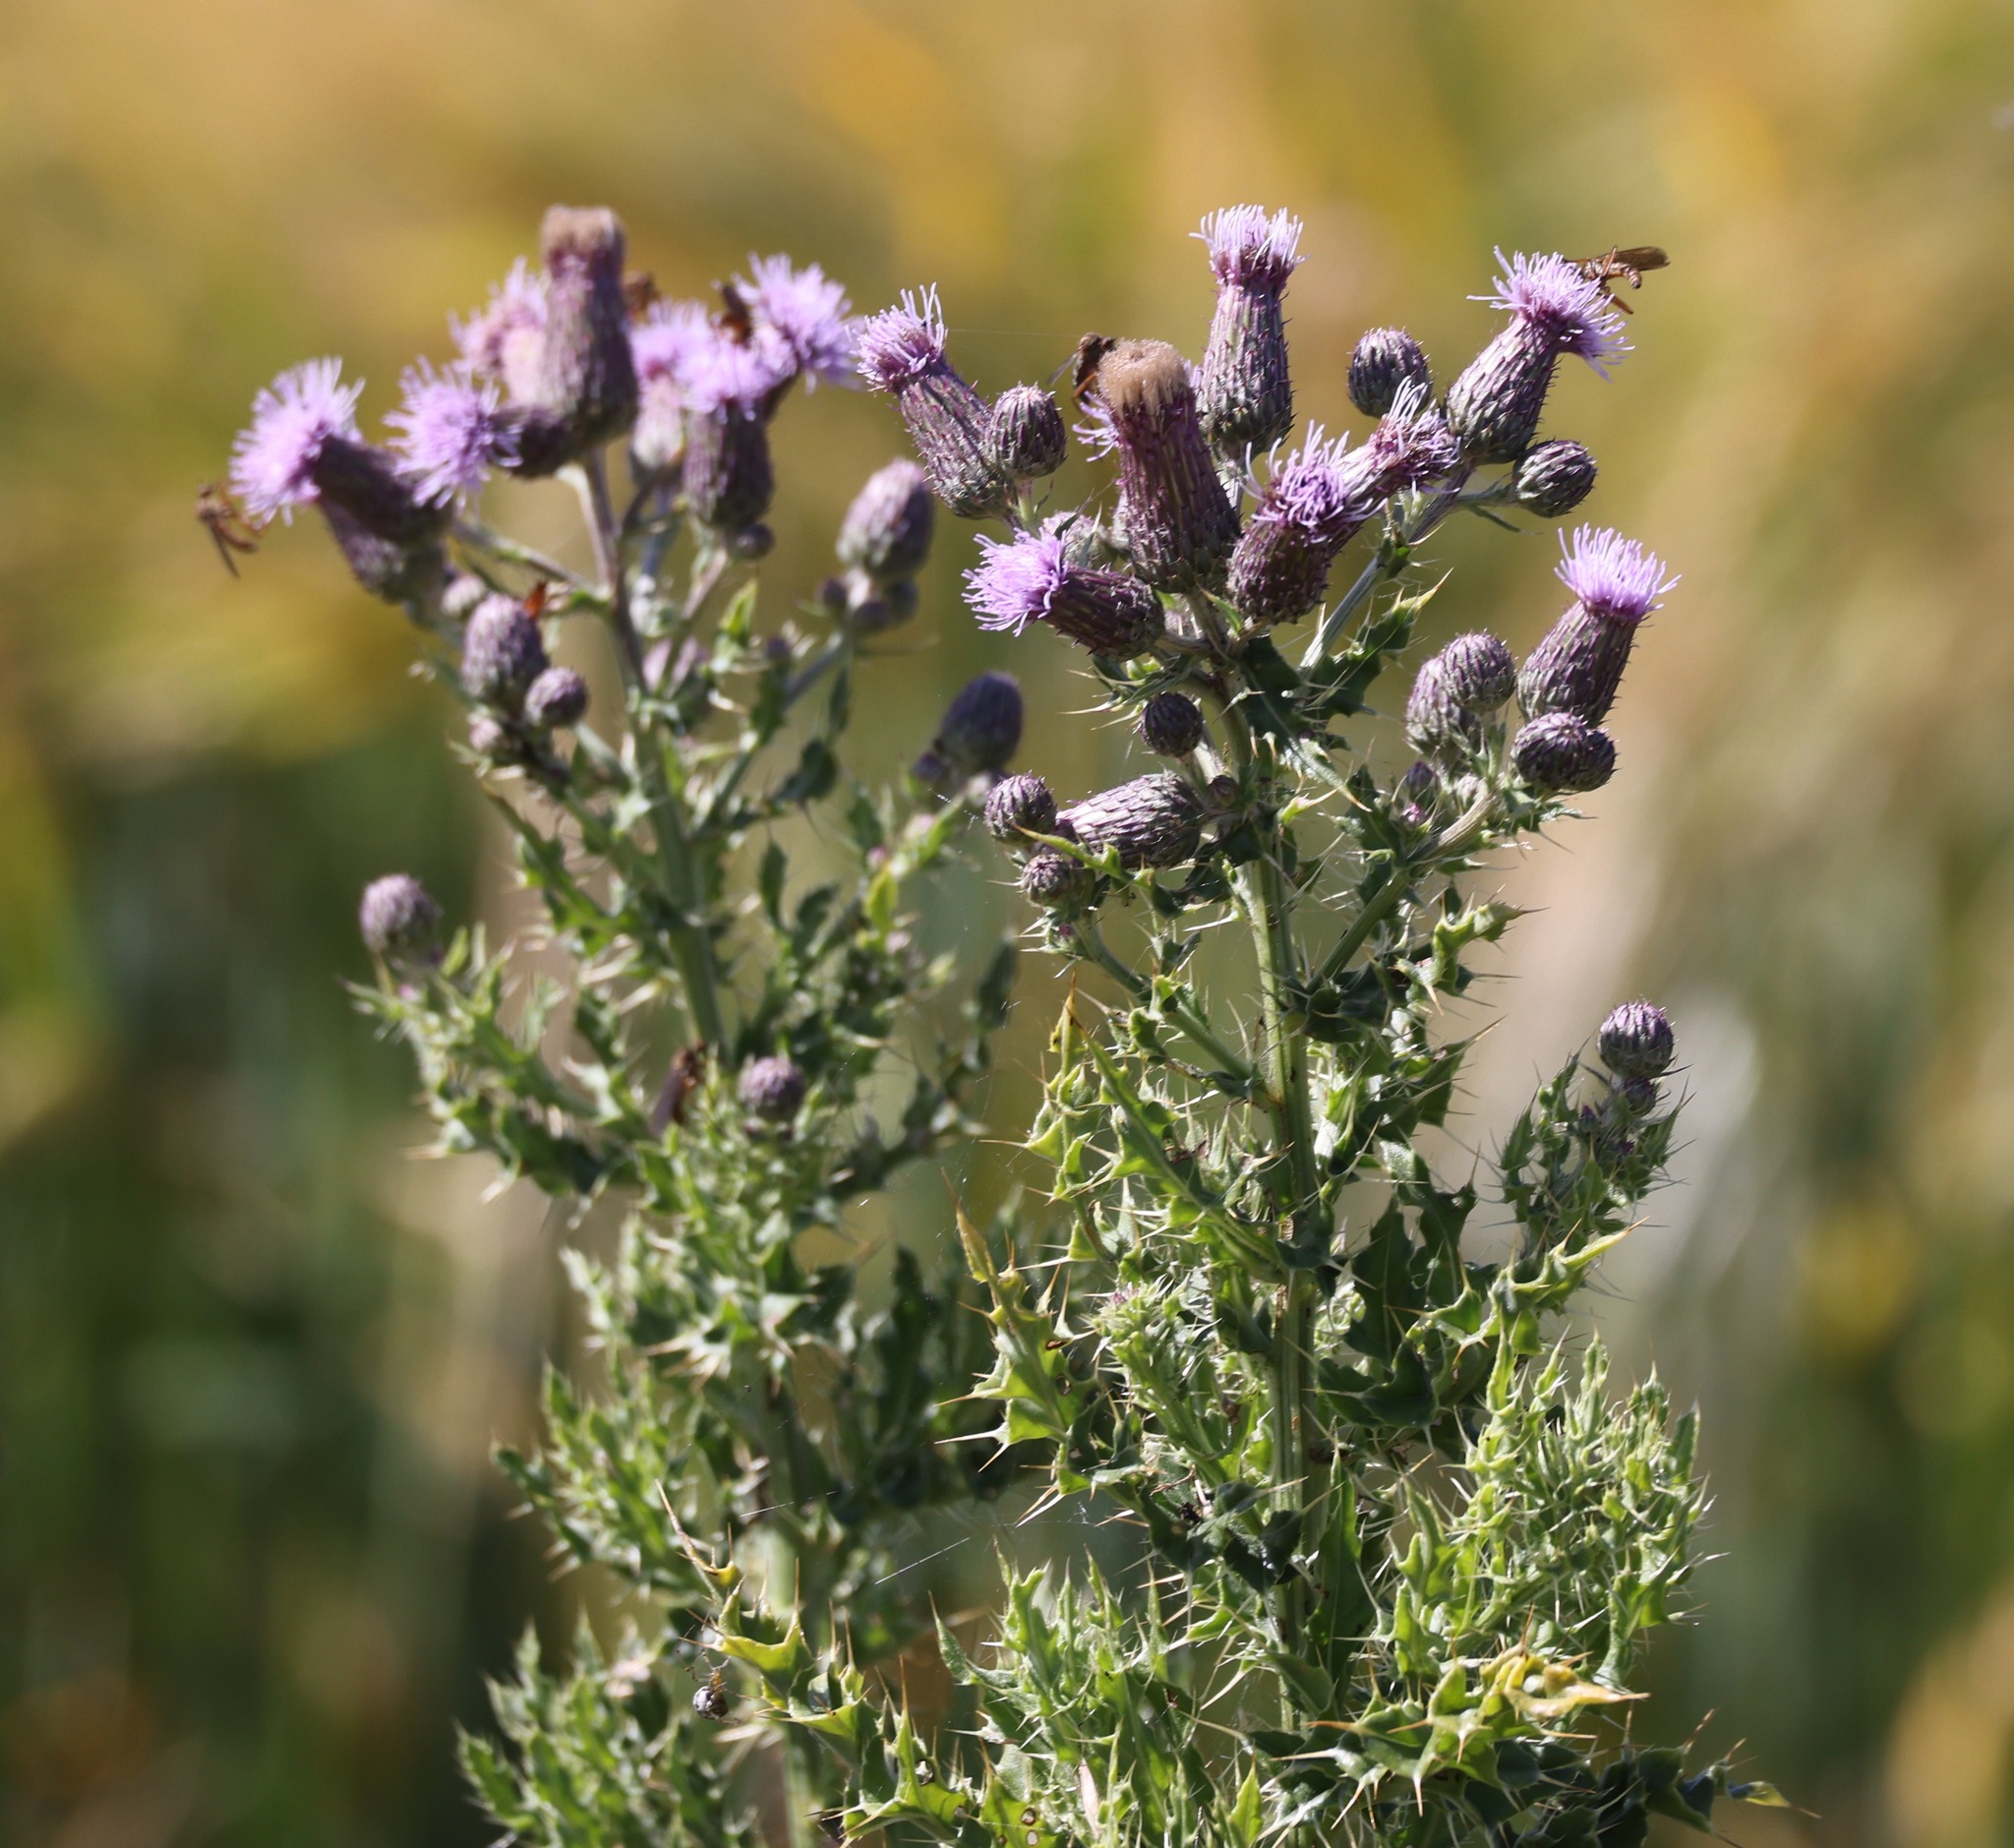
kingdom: Plantae
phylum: Tracheophyta
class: Magnoliopsida
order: Asterales
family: Asteraceae
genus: Cirsium
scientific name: Cirsium arvense
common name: Creeping thistle
